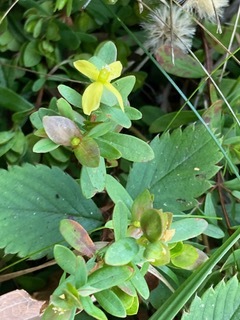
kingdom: Plantae
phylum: Tracheophyta
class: Magnoliopsida
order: Malpighiales
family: Hypericaceae
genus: Hypericum
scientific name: Hypericum hypericoides
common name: St. andrew's cross
